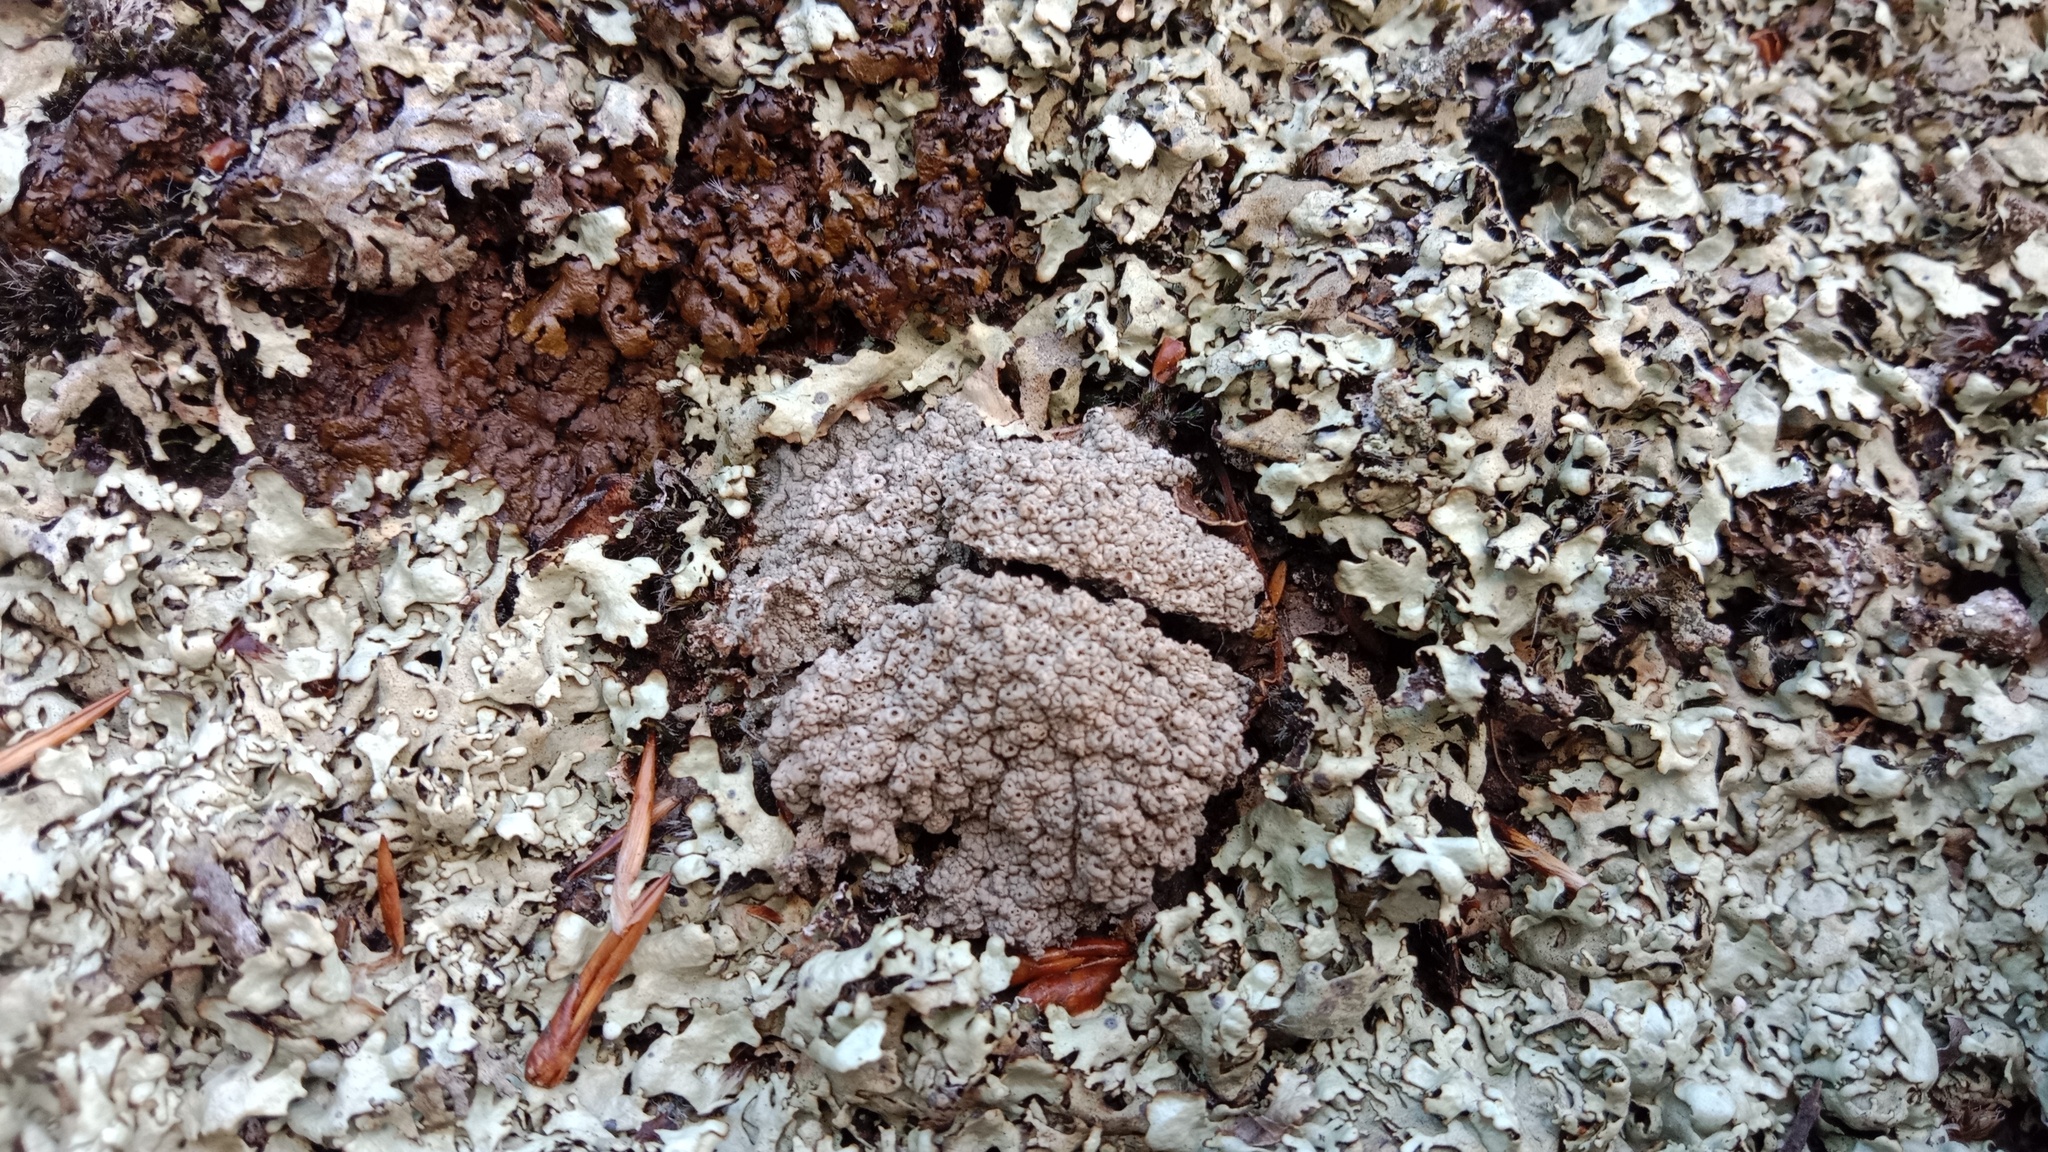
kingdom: Fungi
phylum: Ascomycota
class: Lecanoromycetes
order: Lecanorales
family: Parmeliaceae
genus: Xanthoparmelia
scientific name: Xanthoparmelia stenophylla
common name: Shingled rock shield
